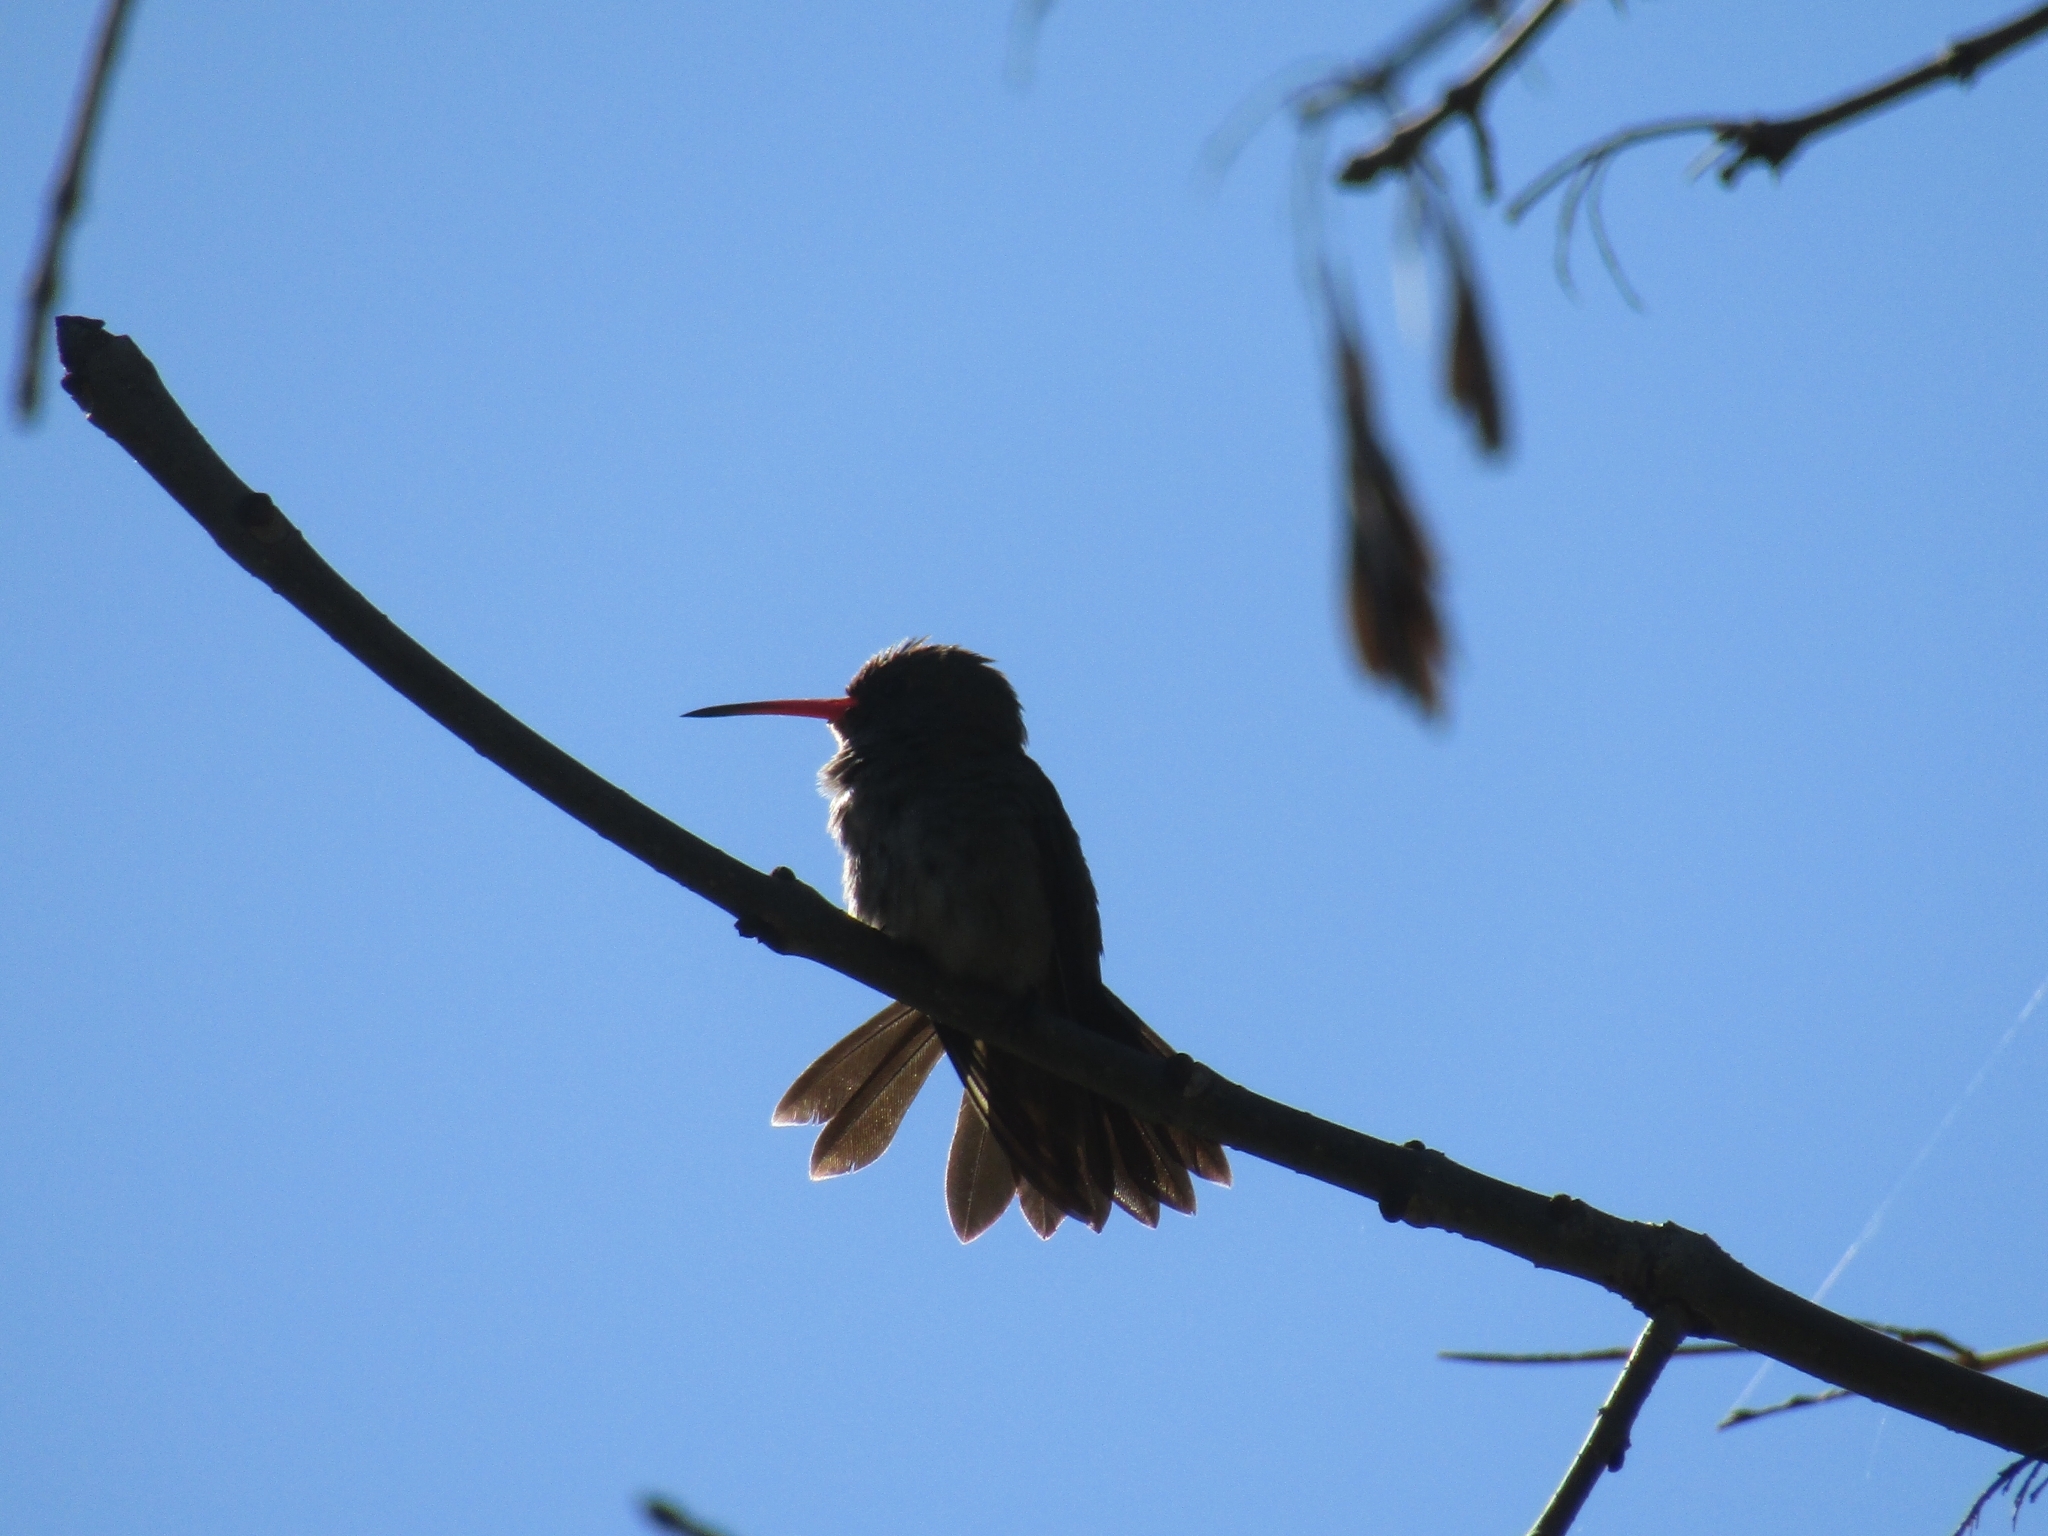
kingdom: Animalia
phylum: Chordata
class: Aves
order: Apodiformes
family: Trochilidae
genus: Hylocharis
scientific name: Hylocharis chrysura
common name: Gilded sapphire
